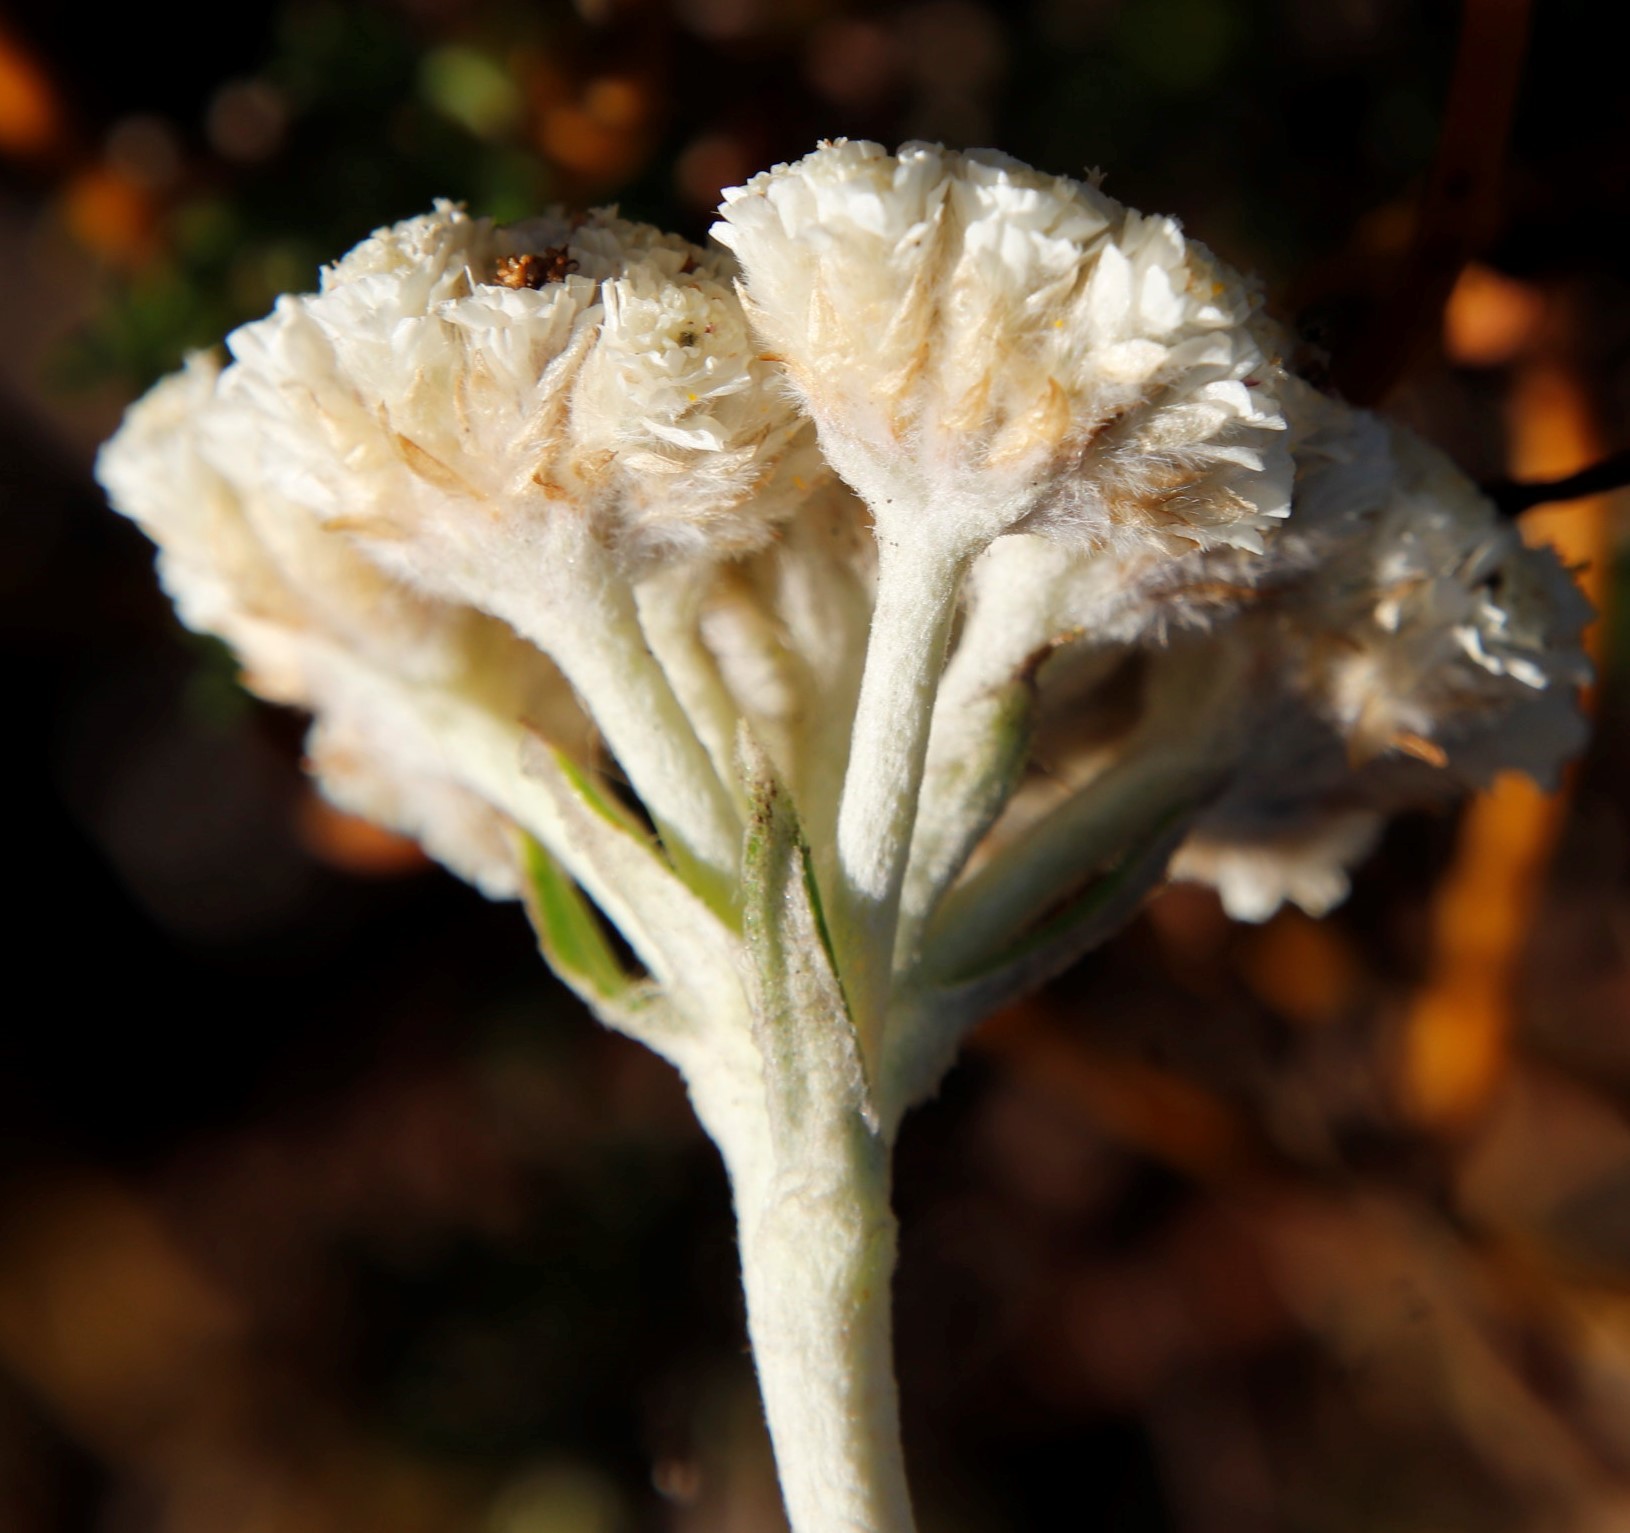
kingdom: Plantae
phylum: Tracheophyta
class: Magnoliopsida
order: Asterales
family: Asteraceae
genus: Anaxeton
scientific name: Anaxeton laeve
